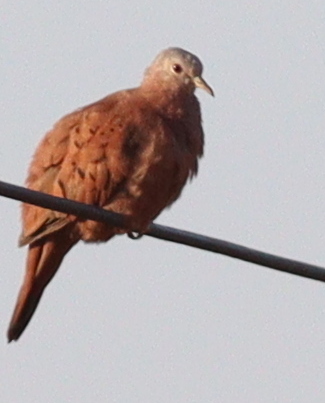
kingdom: Animalia
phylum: Chordata
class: Aves
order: Columbiformes
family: Columbidae
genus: Columbina
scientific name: Columbina talpacoti
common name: Ruddy ground dove
